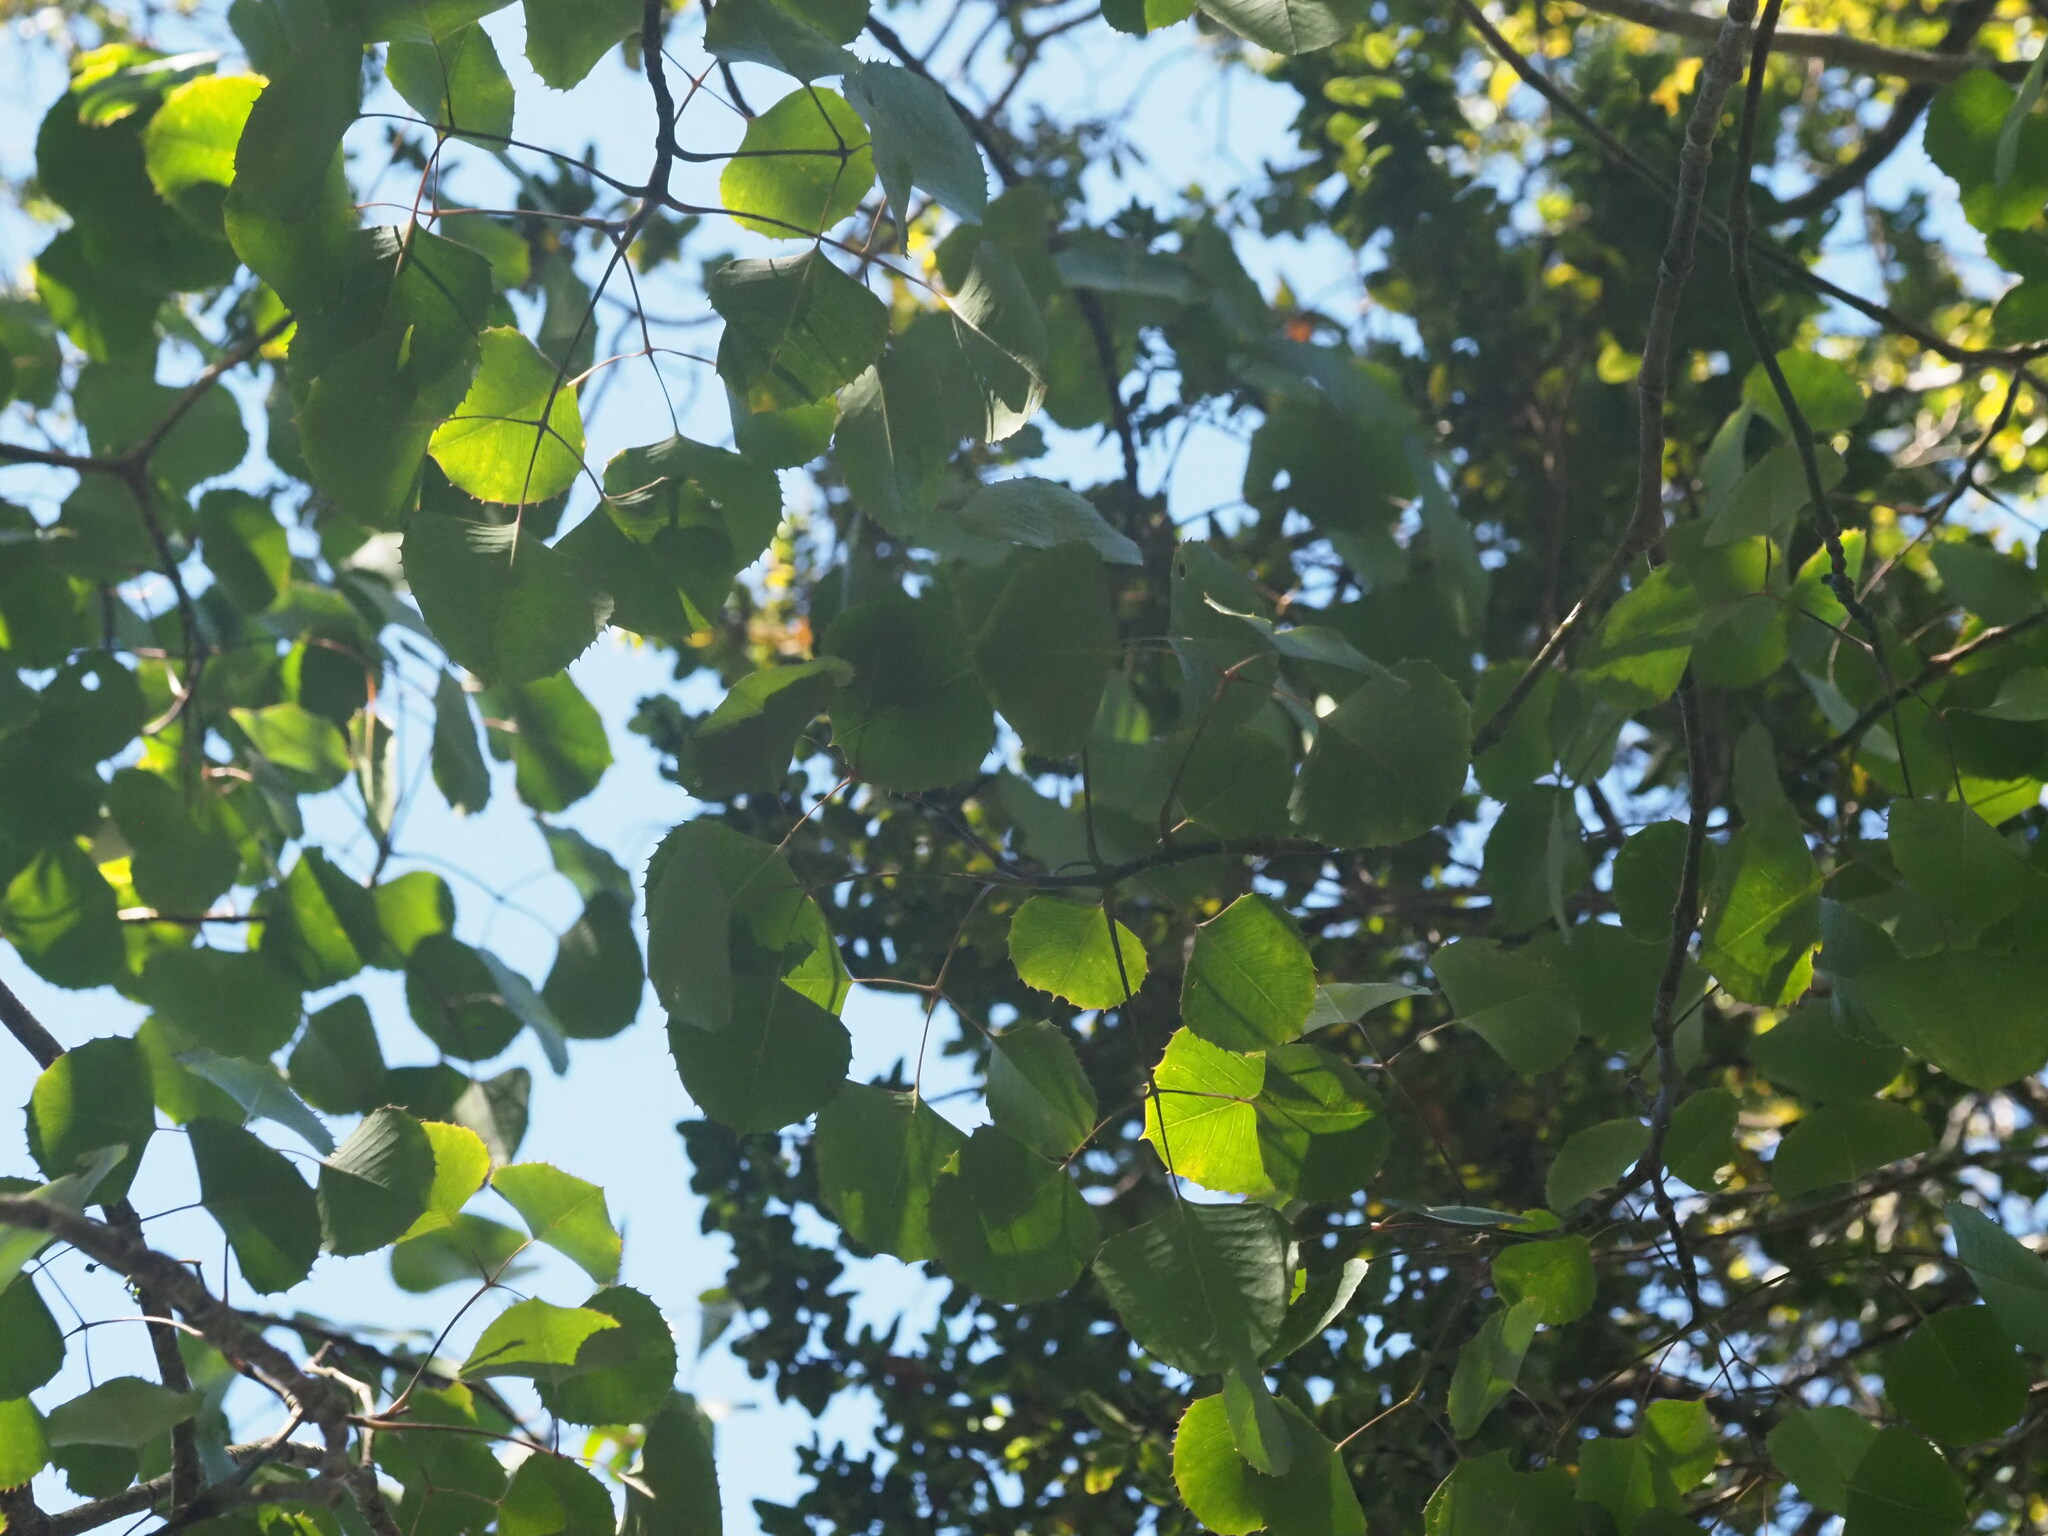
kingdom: Plantae
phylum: Tracheophyta
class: Magnoliopsida
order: Apiales
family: Araliaceae
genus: Cheirodendron
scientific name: Cheirodendron dominii
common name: Domin's club
